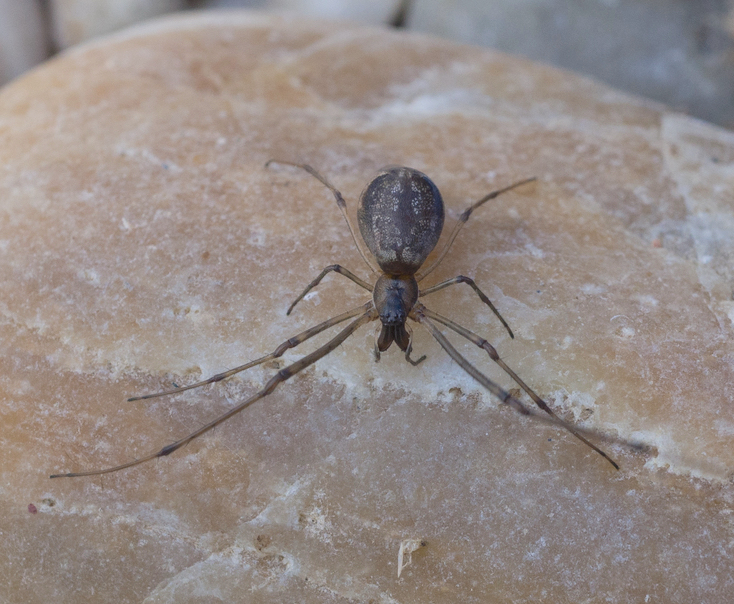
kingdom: Animalia
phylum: Arthropoda
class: Arachnida
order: Araneae
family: Tetragnathidae
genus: Tetragnatha
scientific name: Tetragnatha nigrita
